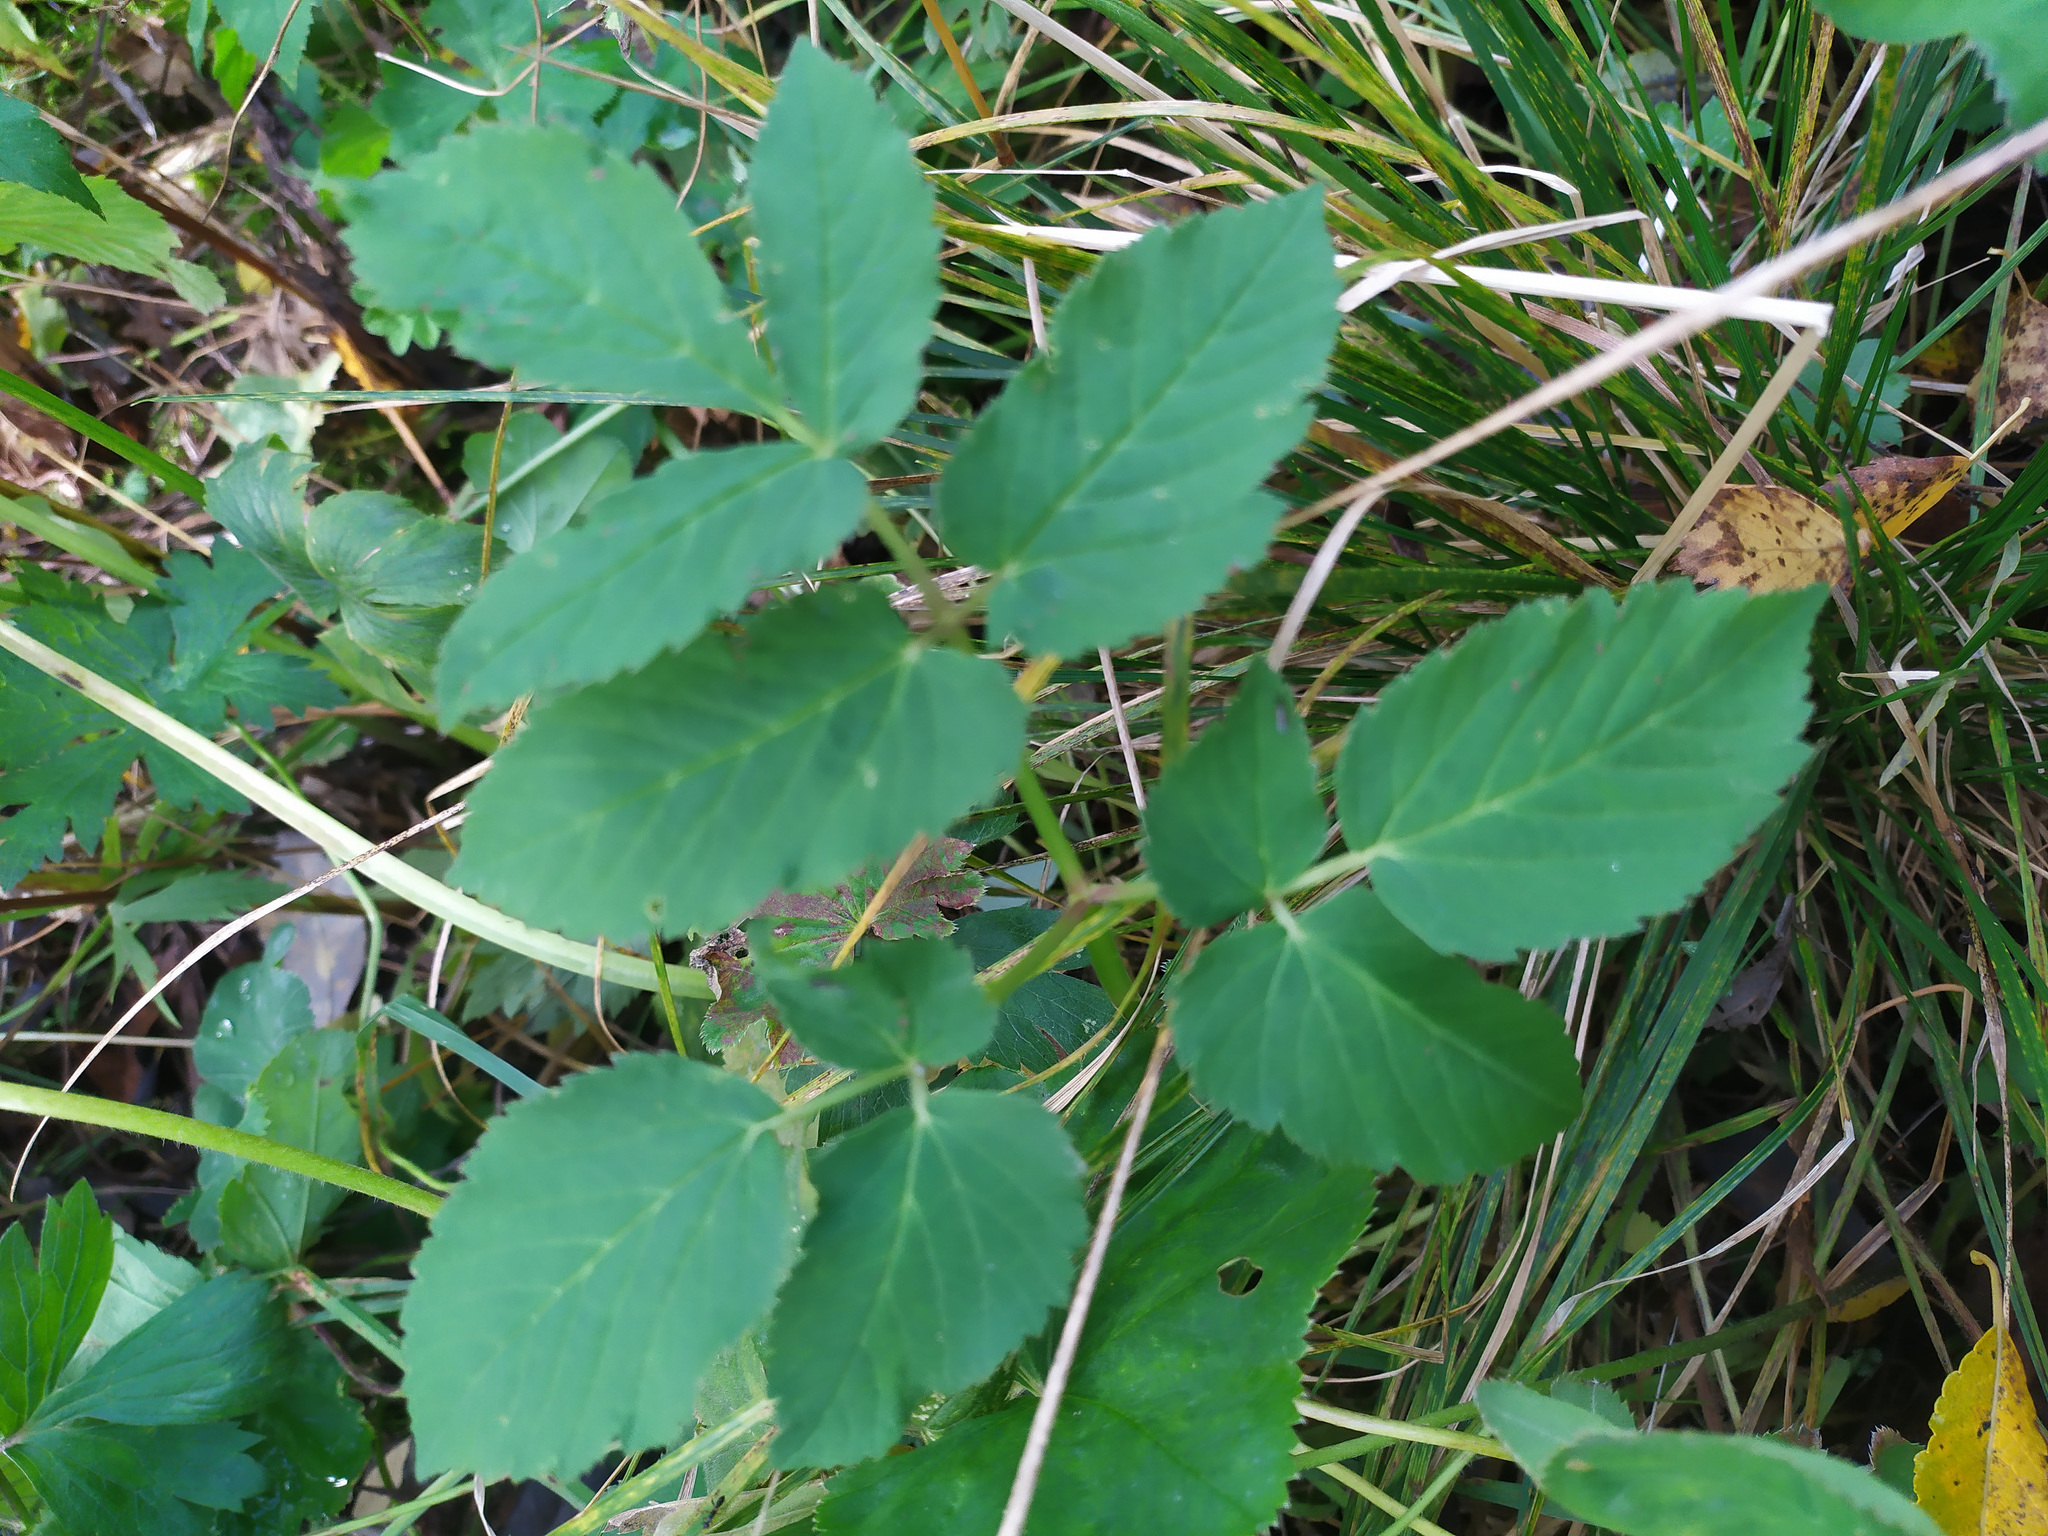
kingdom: Plantae
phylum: Tracheophyta
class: Magnoliopsida
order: Apiales
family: Apiaceae
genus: Aegopodium
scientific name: Aegopodium podagraria
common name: Ground-elder
